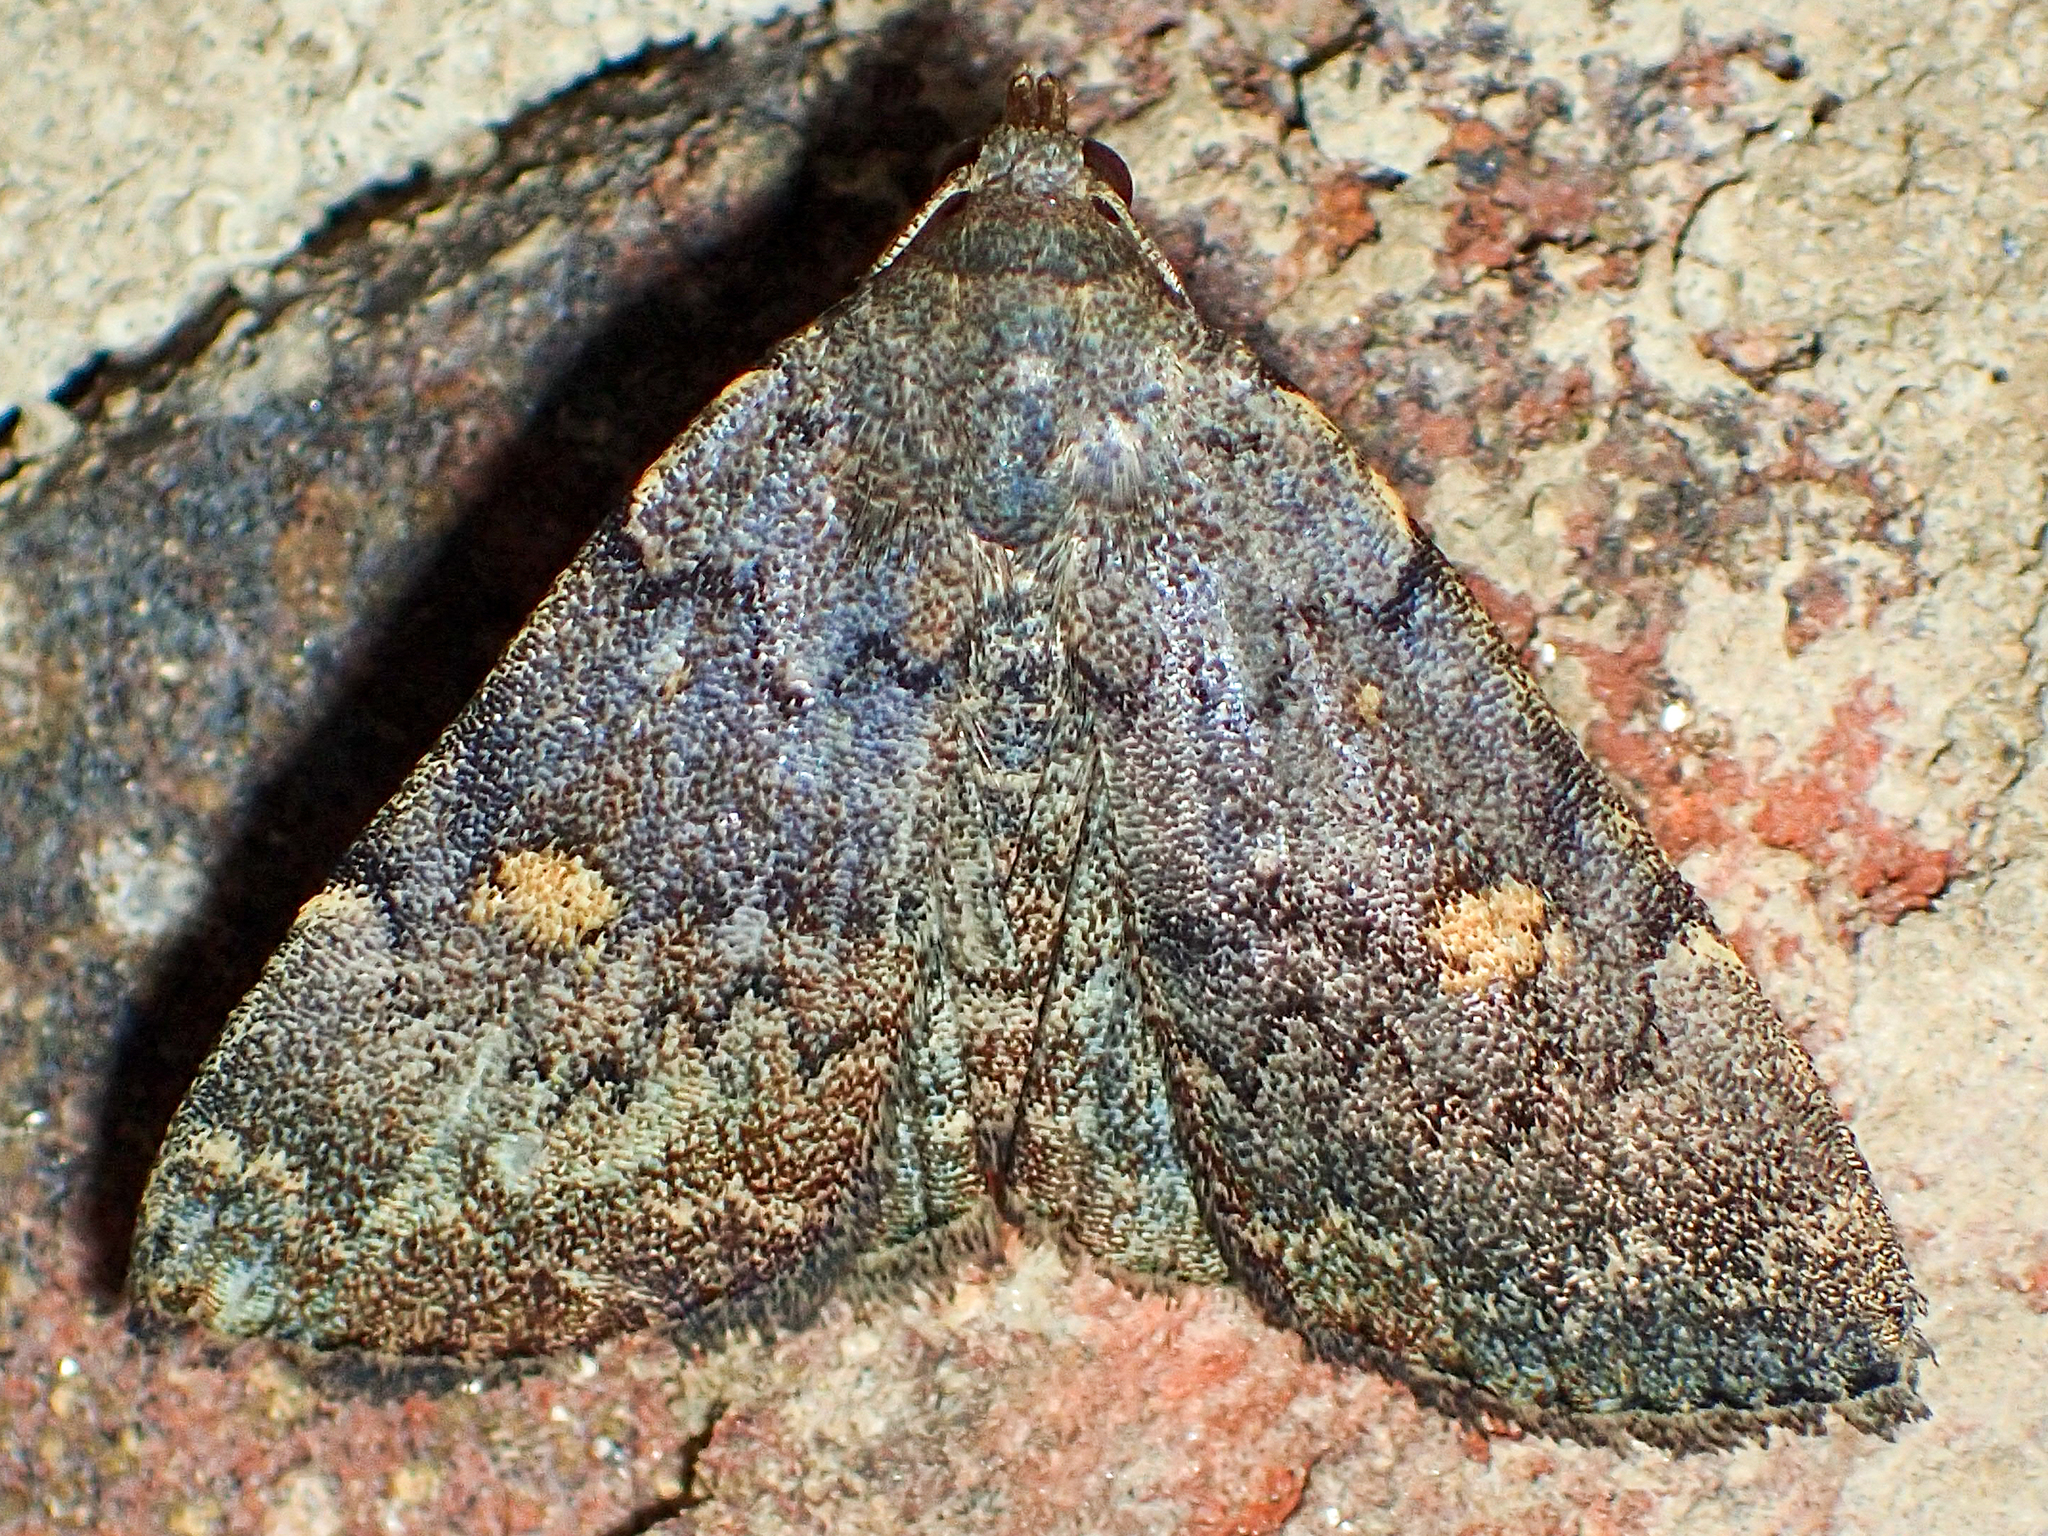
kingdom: Animalia
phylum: Arthropoda
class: Insecta
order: Lepidoptera
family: Erebidae
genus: Idia
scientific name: Idia aemula
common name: Common idia moth
